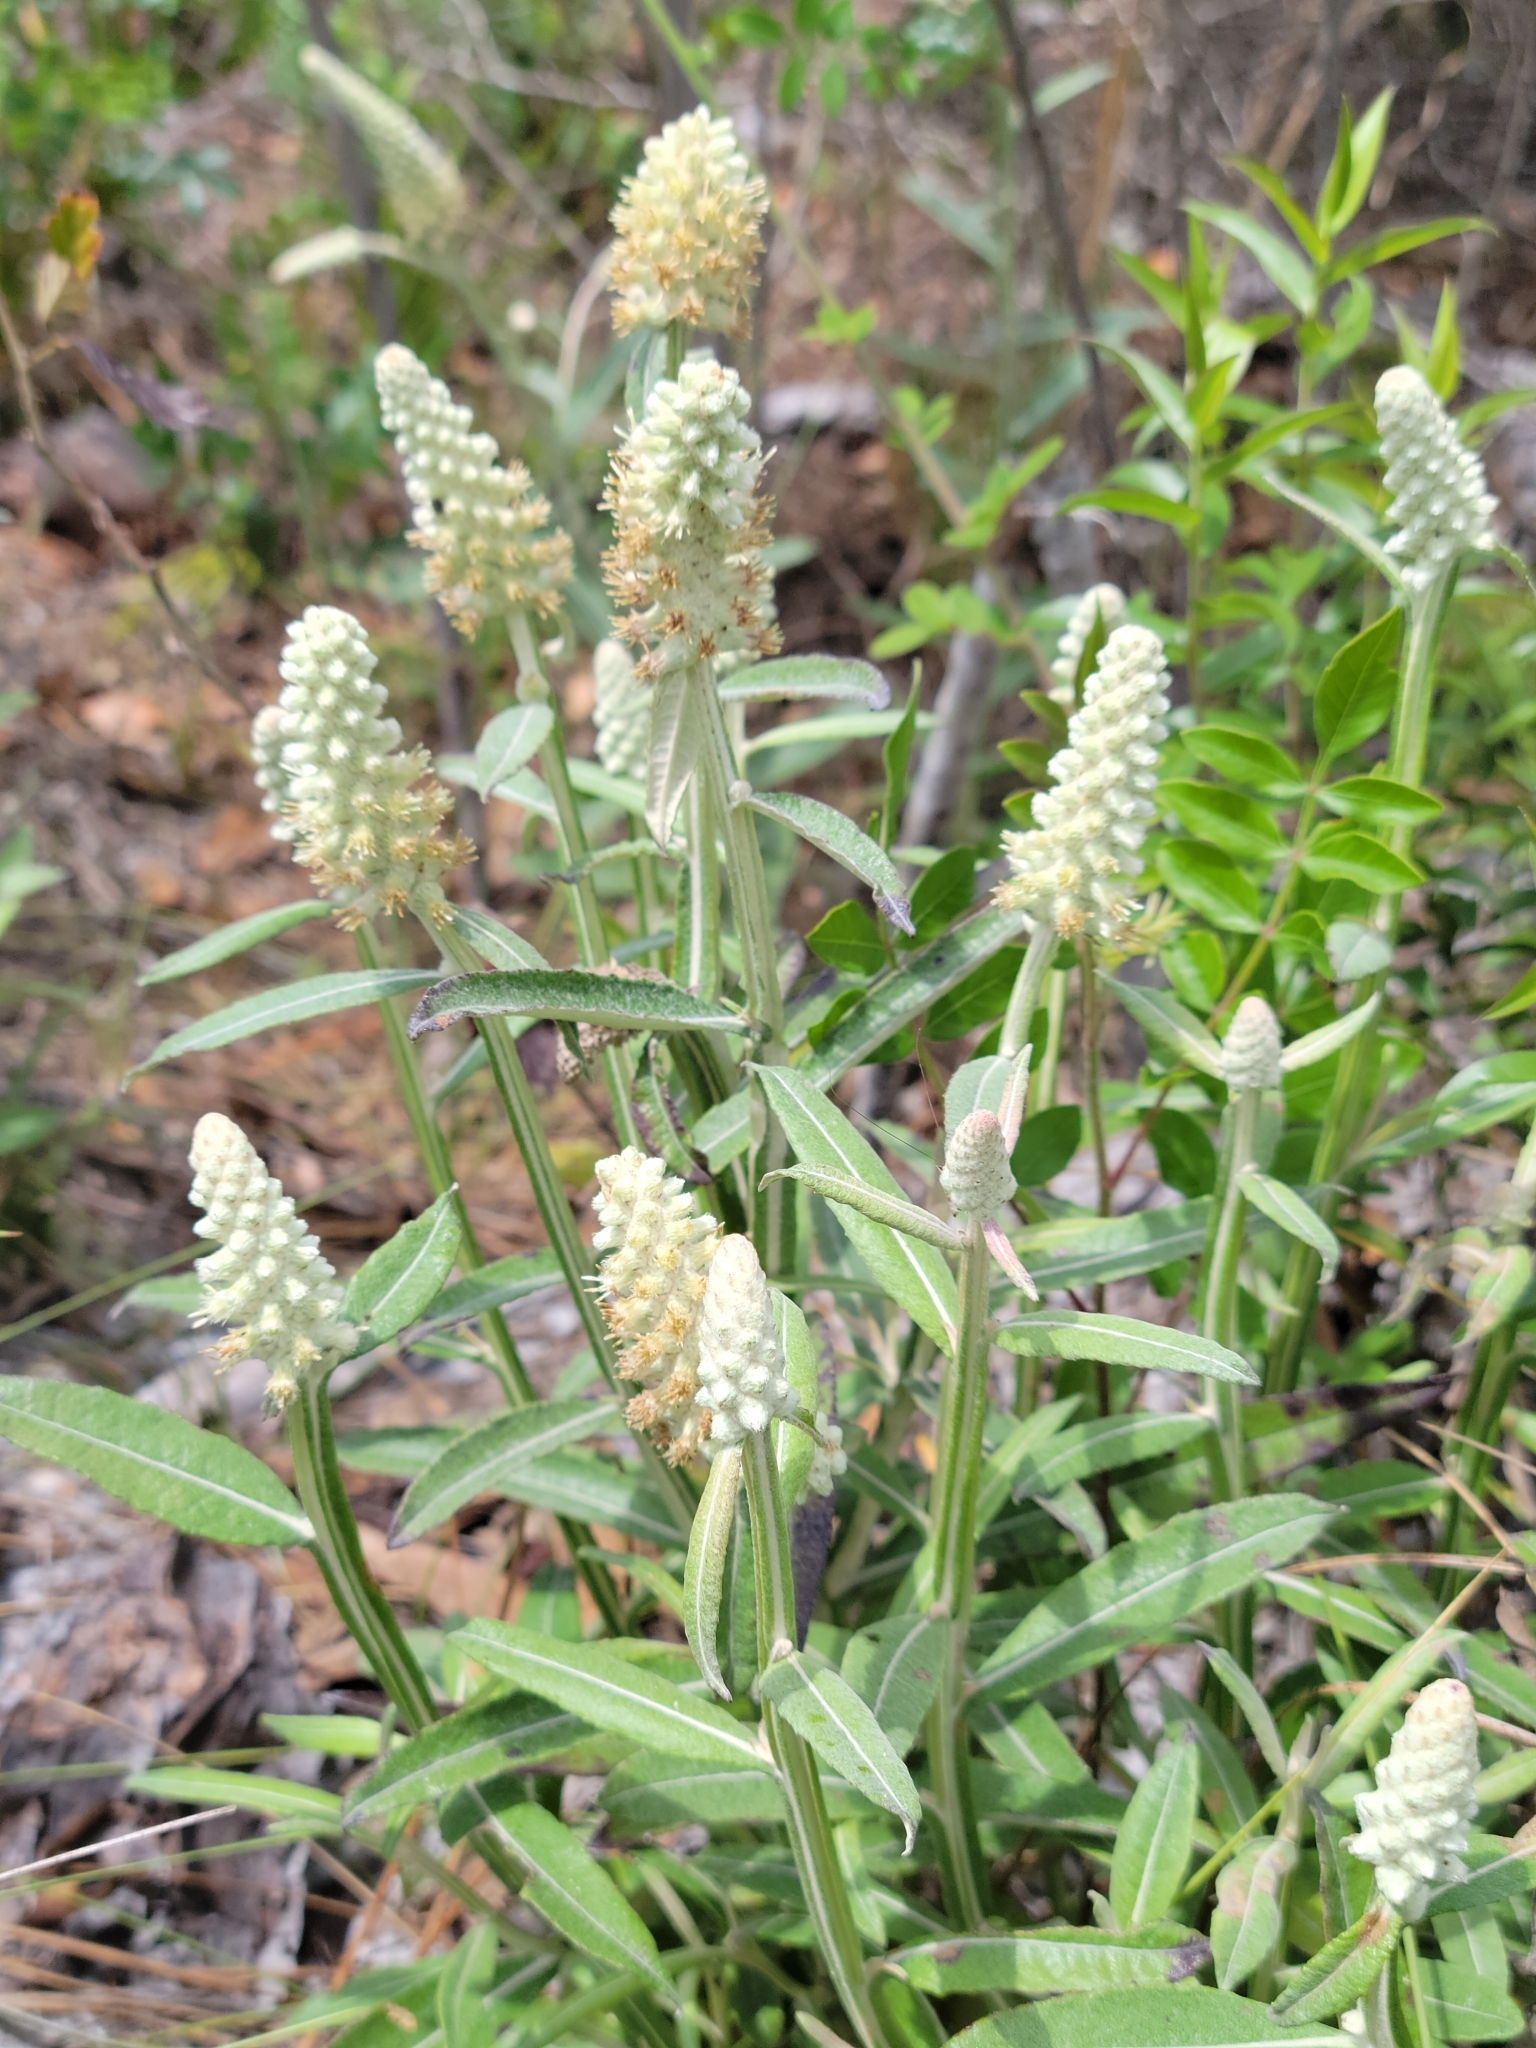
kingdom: Plantae
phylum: Tracheophyta
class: Magnoliopsida
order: Asterales
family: Asteraceae
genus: Pterocaulon
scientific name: Pterocaulon pycnostachyum
